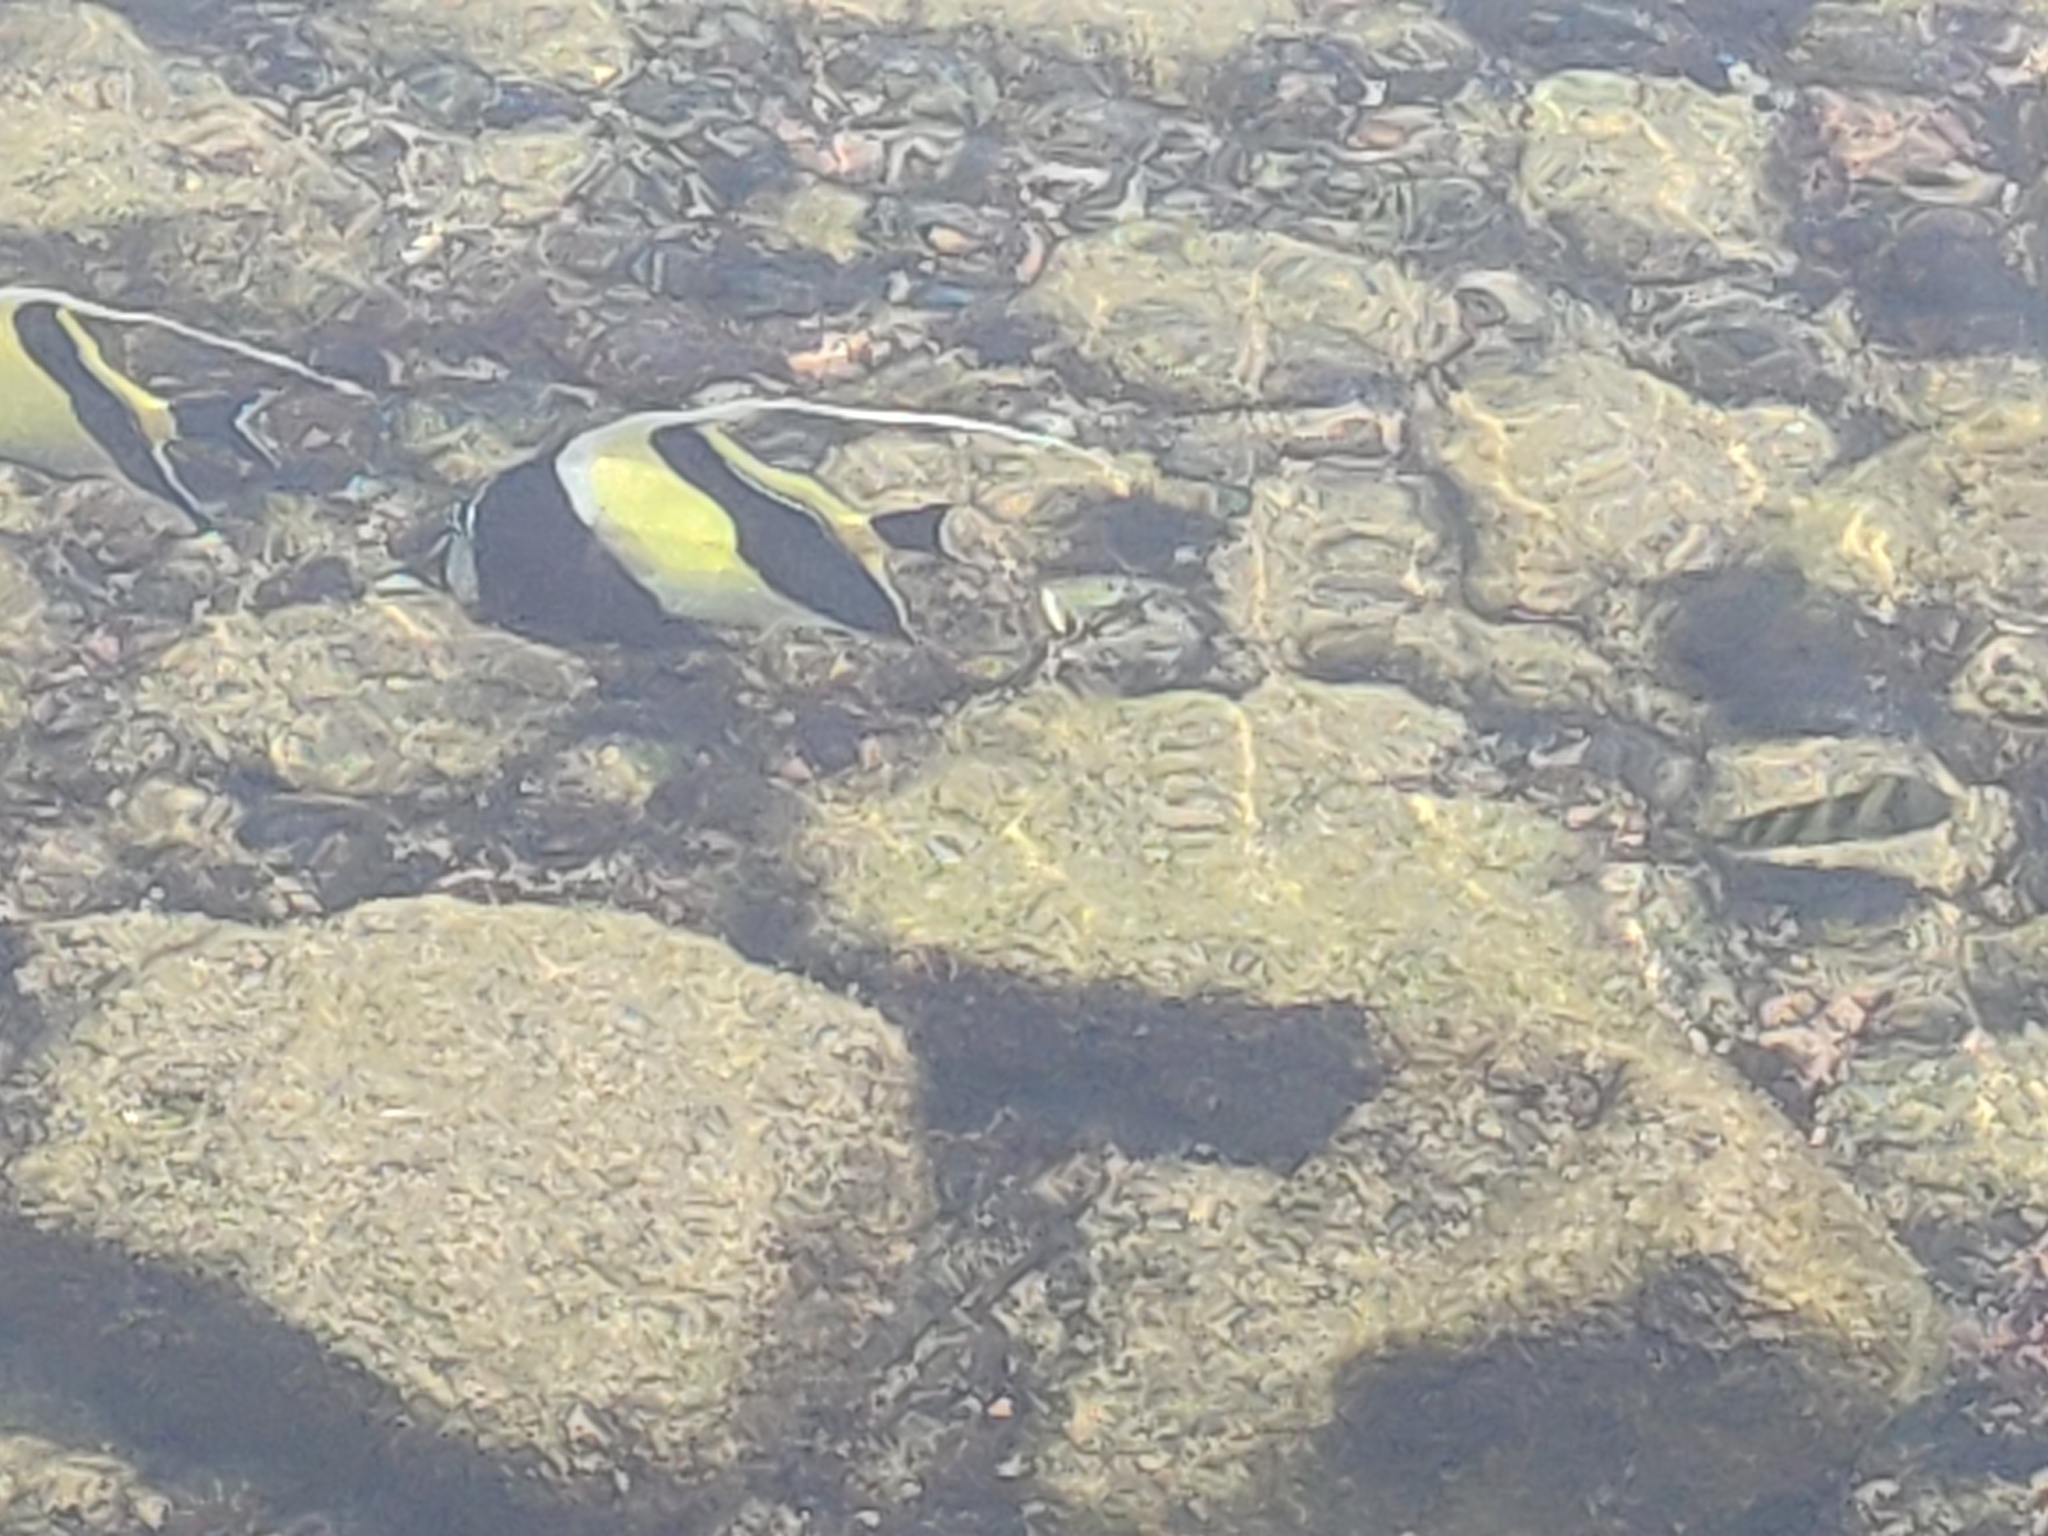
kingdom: Animalia
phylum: Chordata
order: Perciformes
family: Zanclidae
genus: Zanclus
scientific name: Zanclus cornutus
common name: Moorish idol
